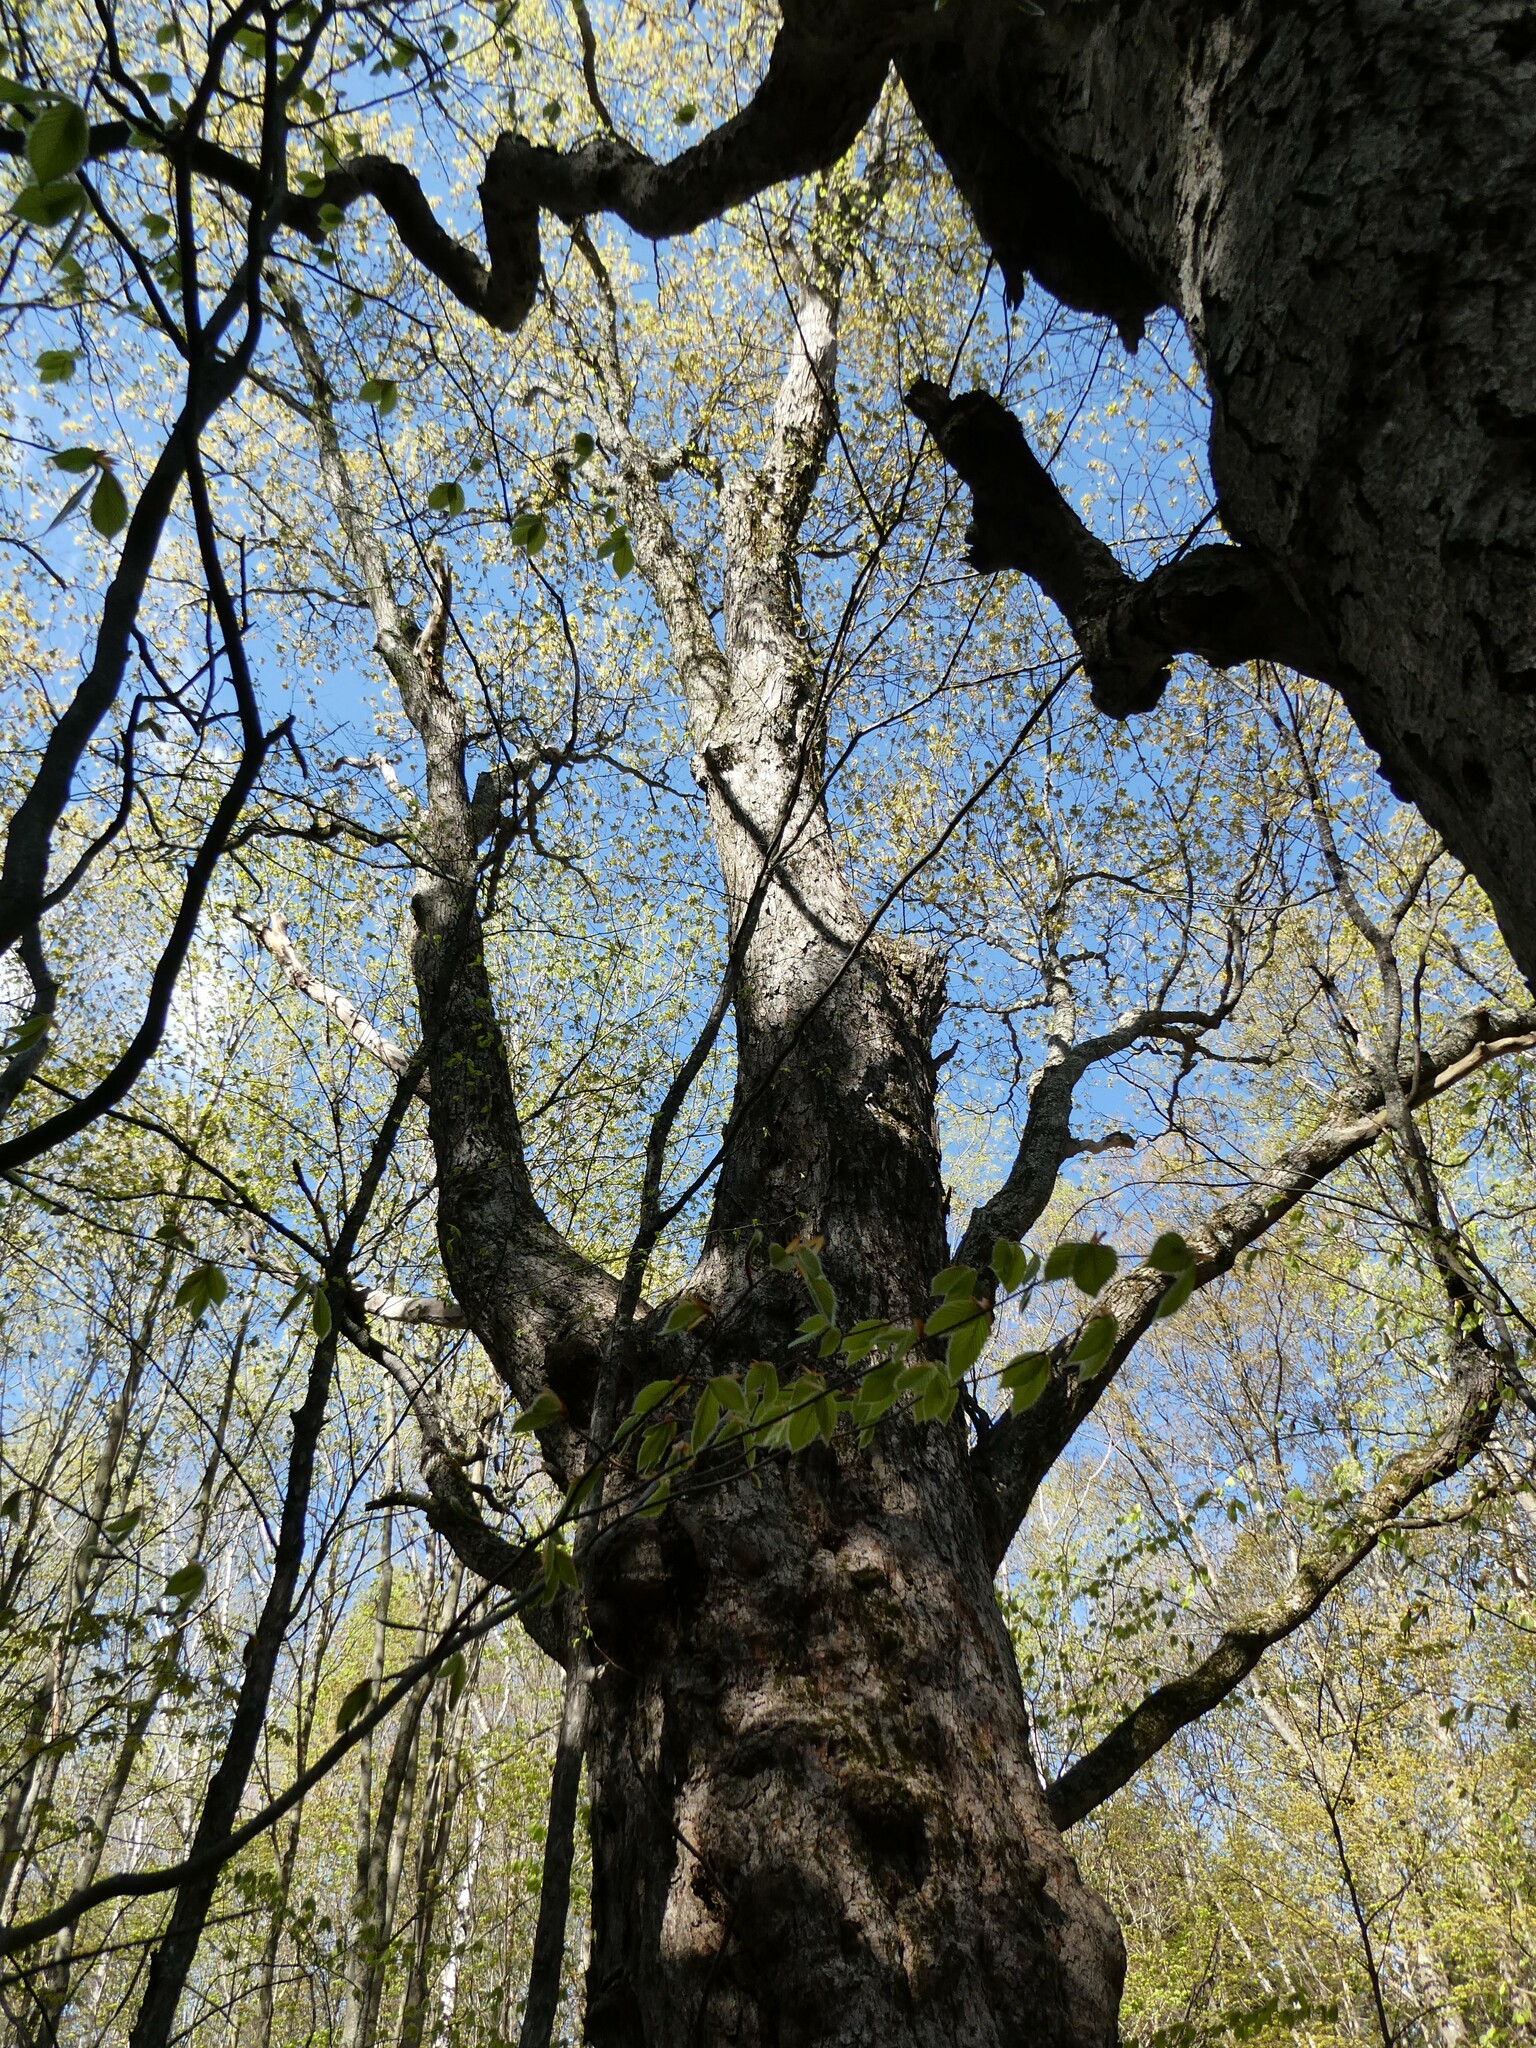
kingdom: Plantae
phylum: Tracheophyta
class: Magnoliopsida
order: Sapindales
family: Sapindaceae
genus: Acer
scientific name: Acer saccharum
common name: Sugar maple
